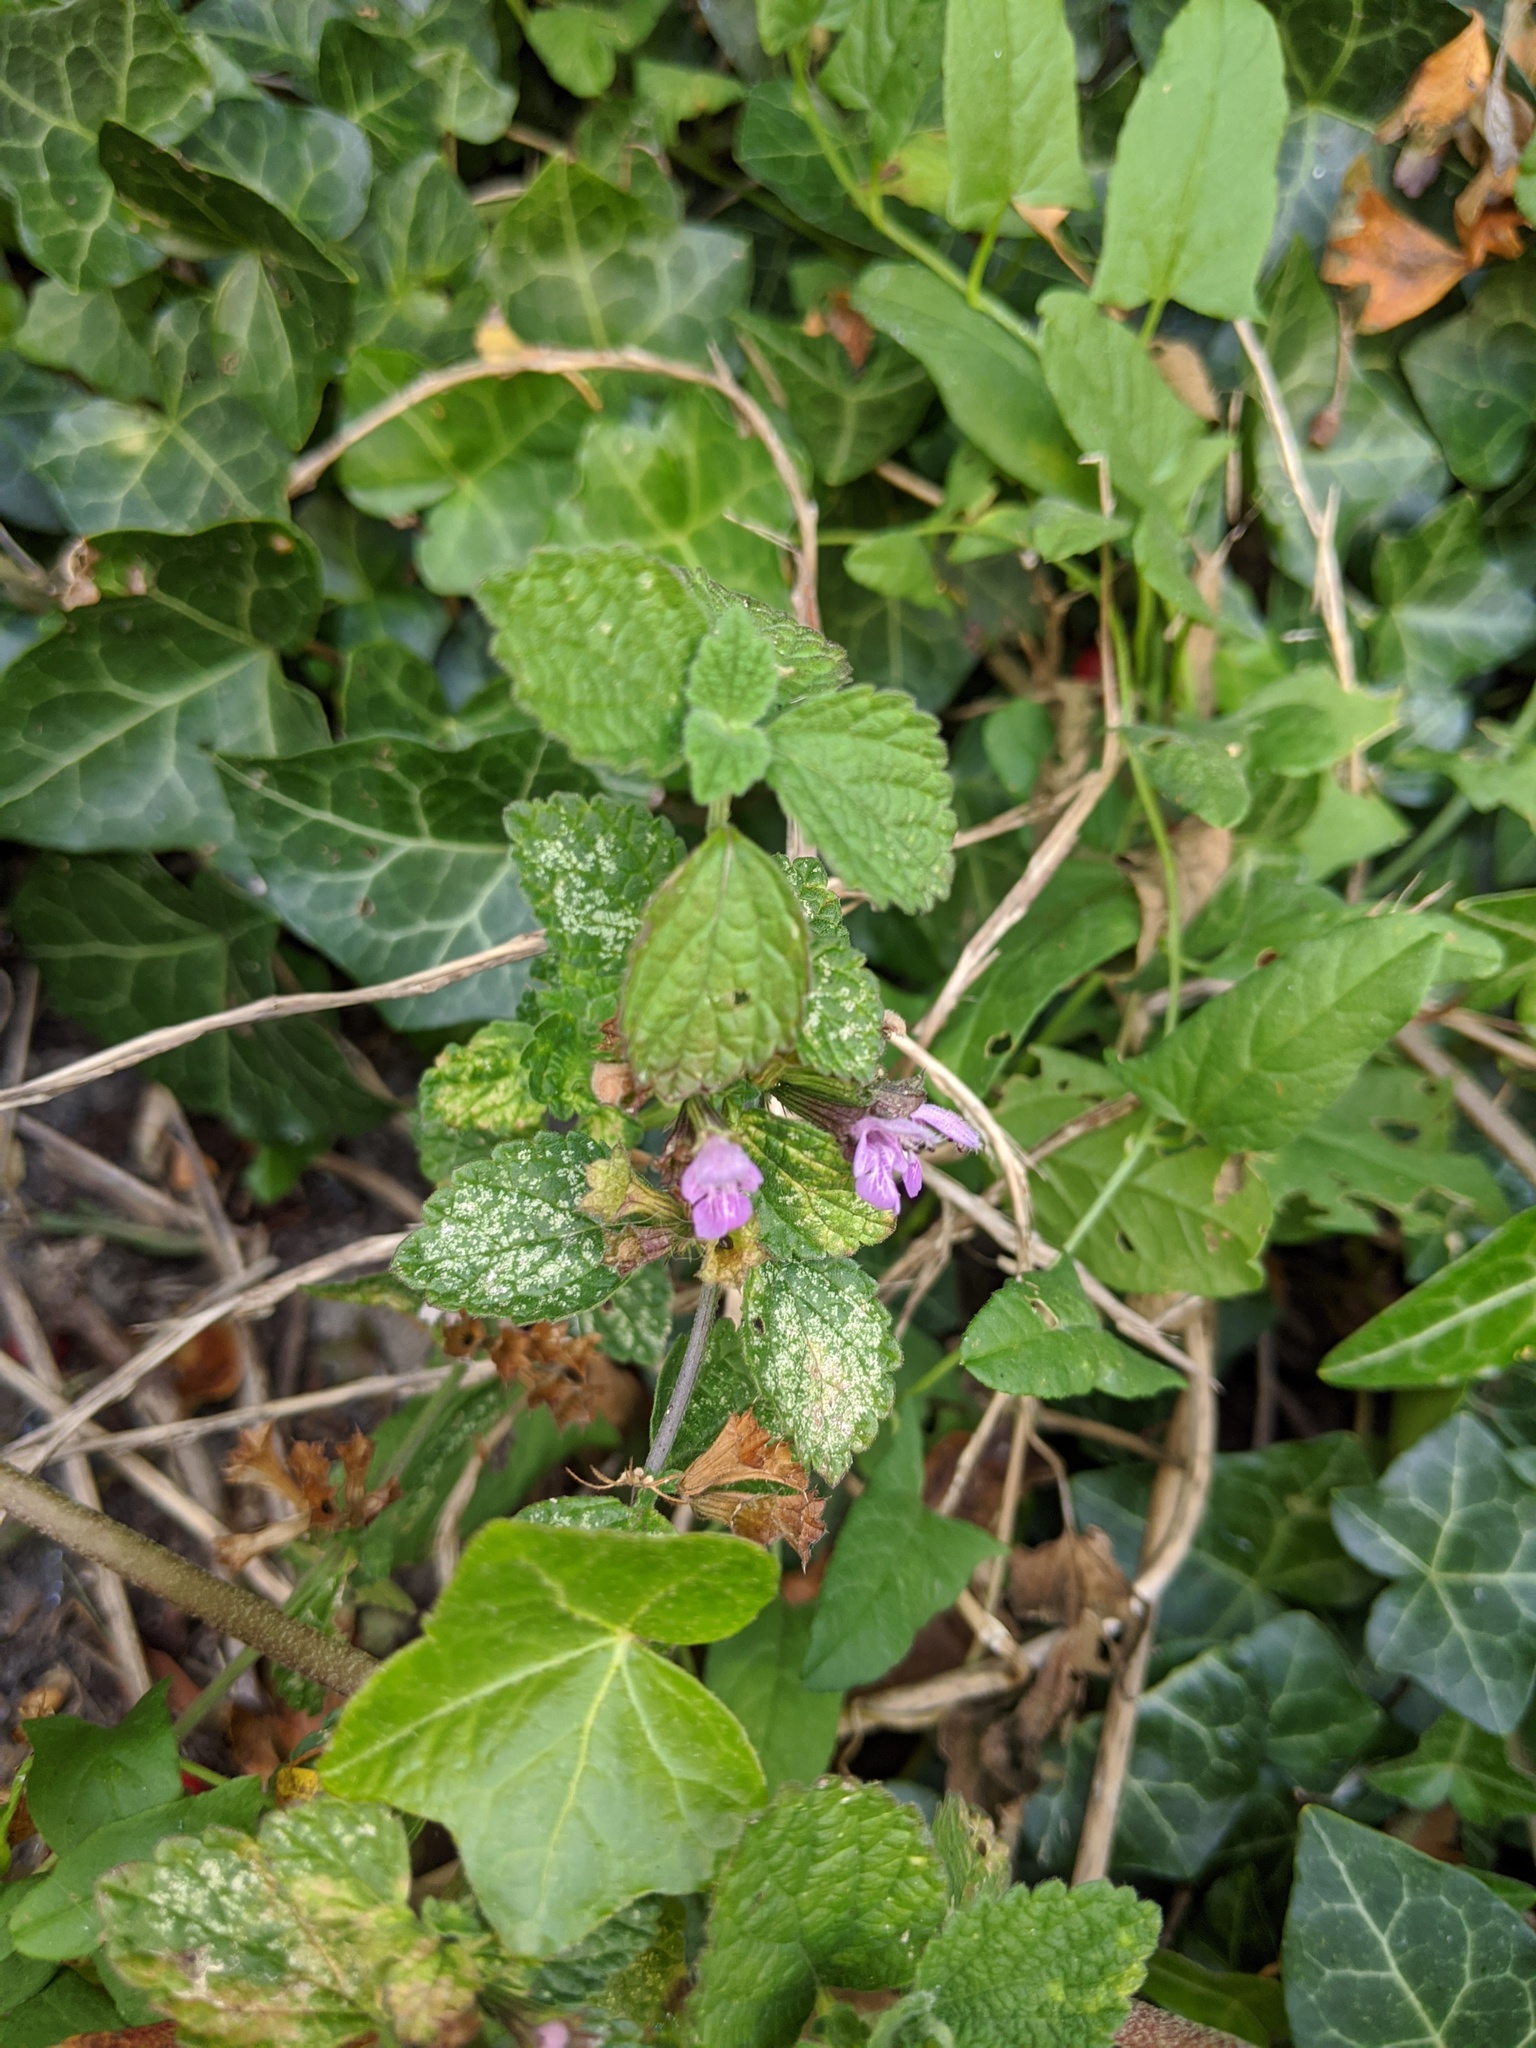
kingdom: Plantae
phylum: Tracheophyta
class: Magnoliopsida
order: Lamiales
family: Lamiaceae
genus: Ballota
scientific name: Ballota nigra
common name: Black horehound
